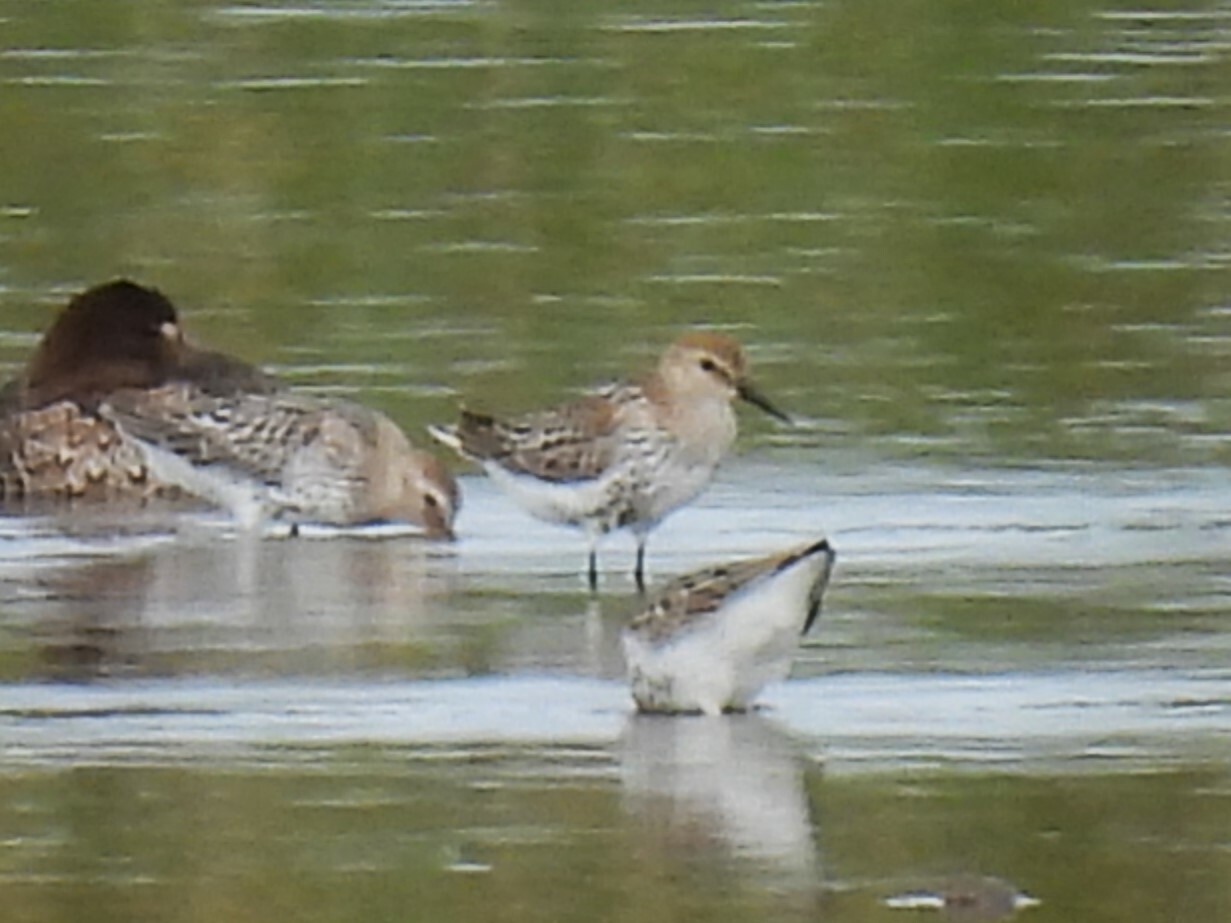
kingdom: Animalia
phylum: Chordata
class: Aves
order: Charadriiformes
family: Scolopacidae
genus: Calidris
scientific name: Calidris alpina
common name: Dunlin
